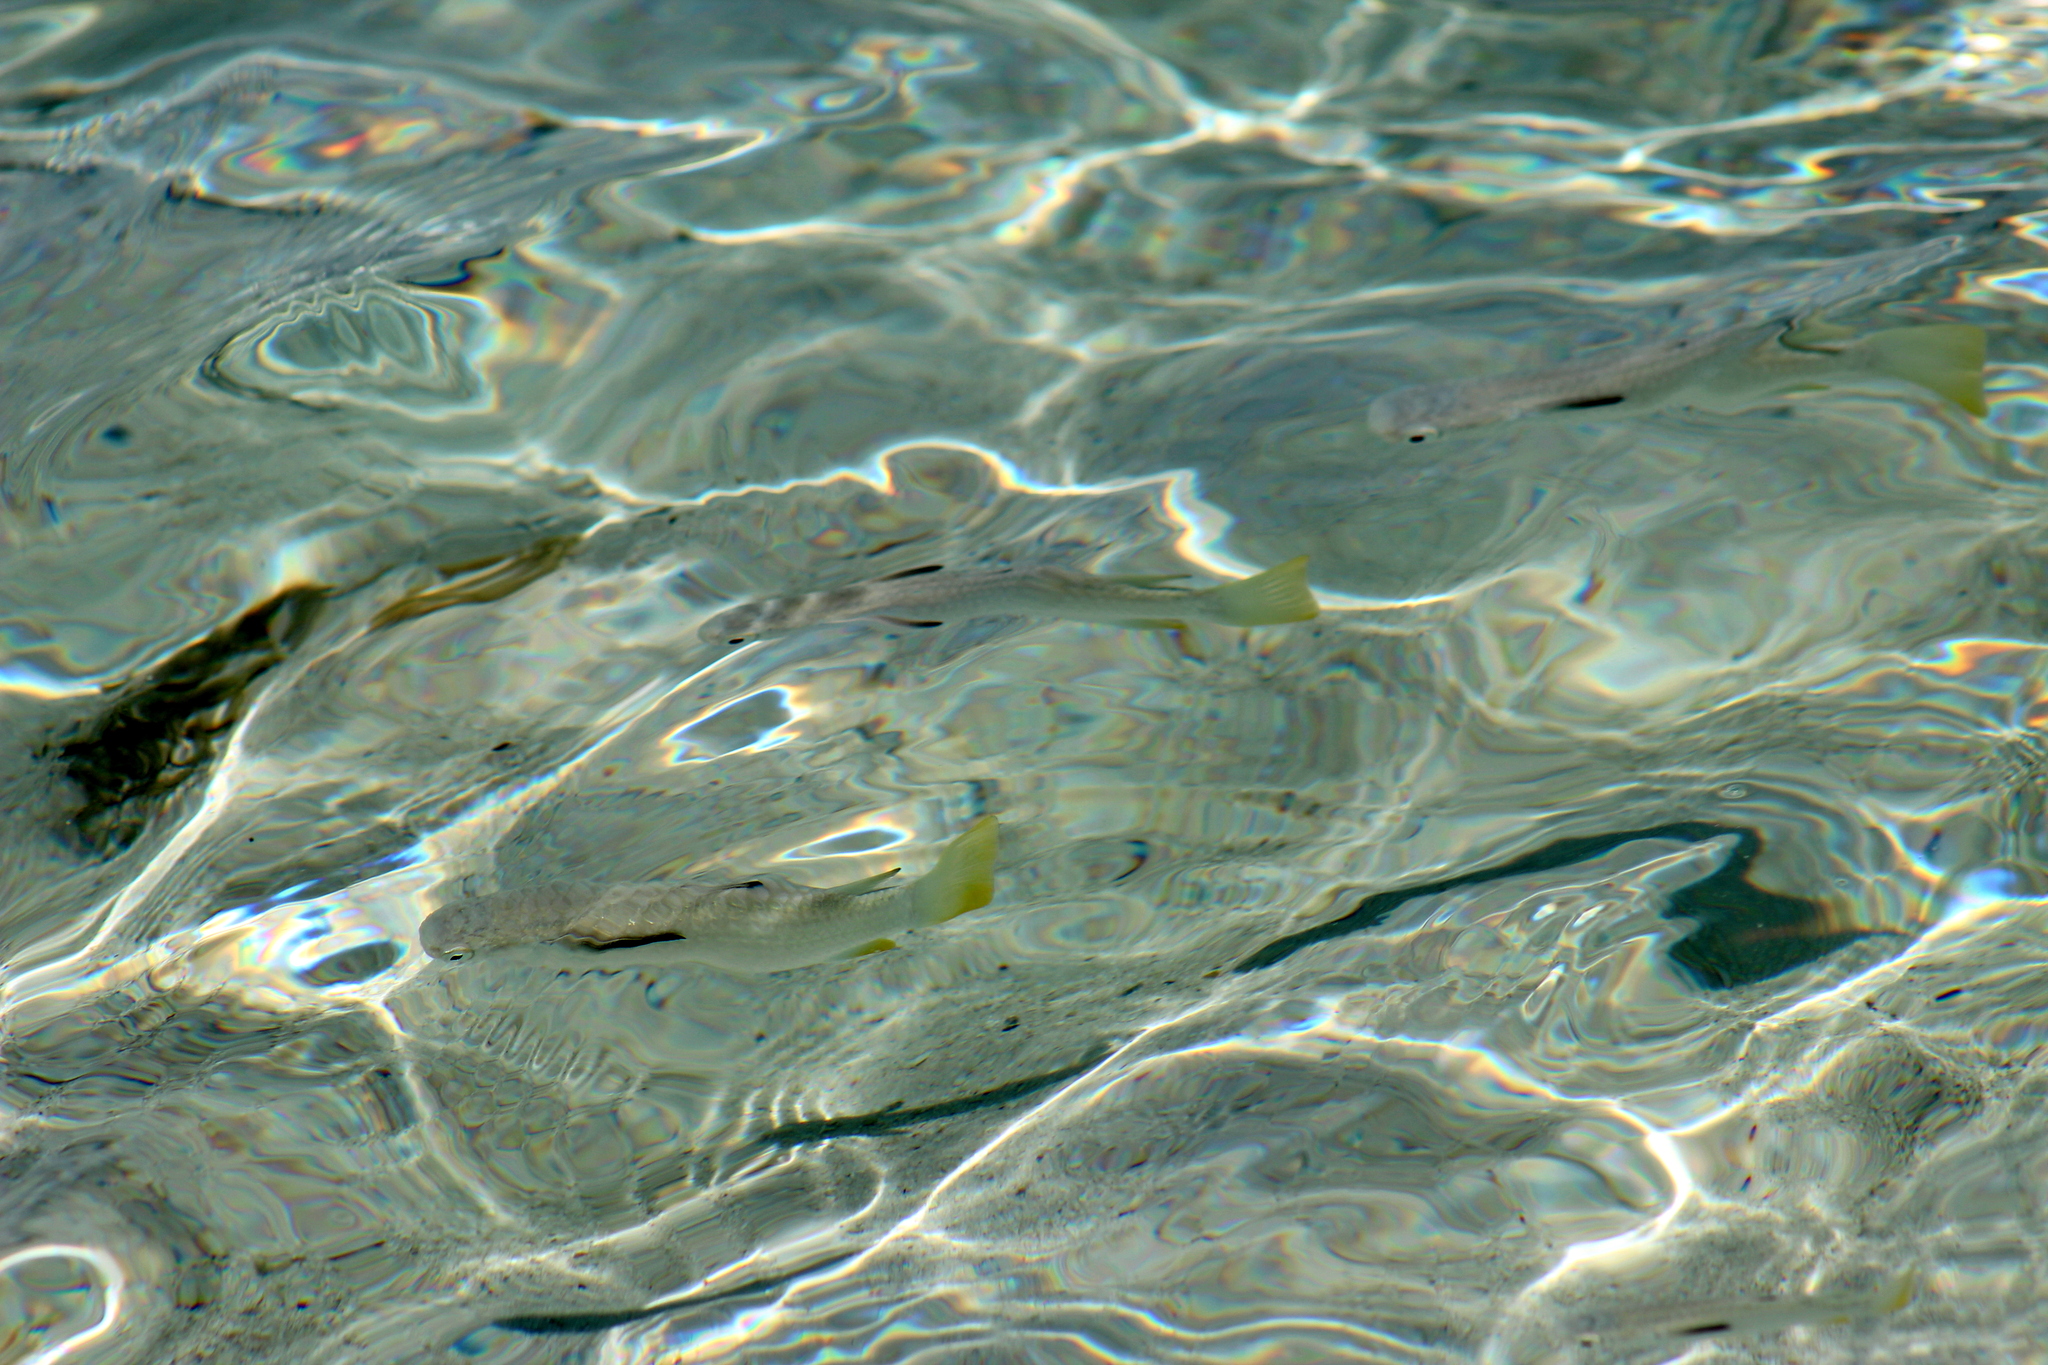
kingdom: Animalia
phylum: Chordata
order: Mugiliformes
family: Mugilidae
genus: Ellochelon
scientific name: Ellochelon vaigiensis
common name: Squaretail mullet
